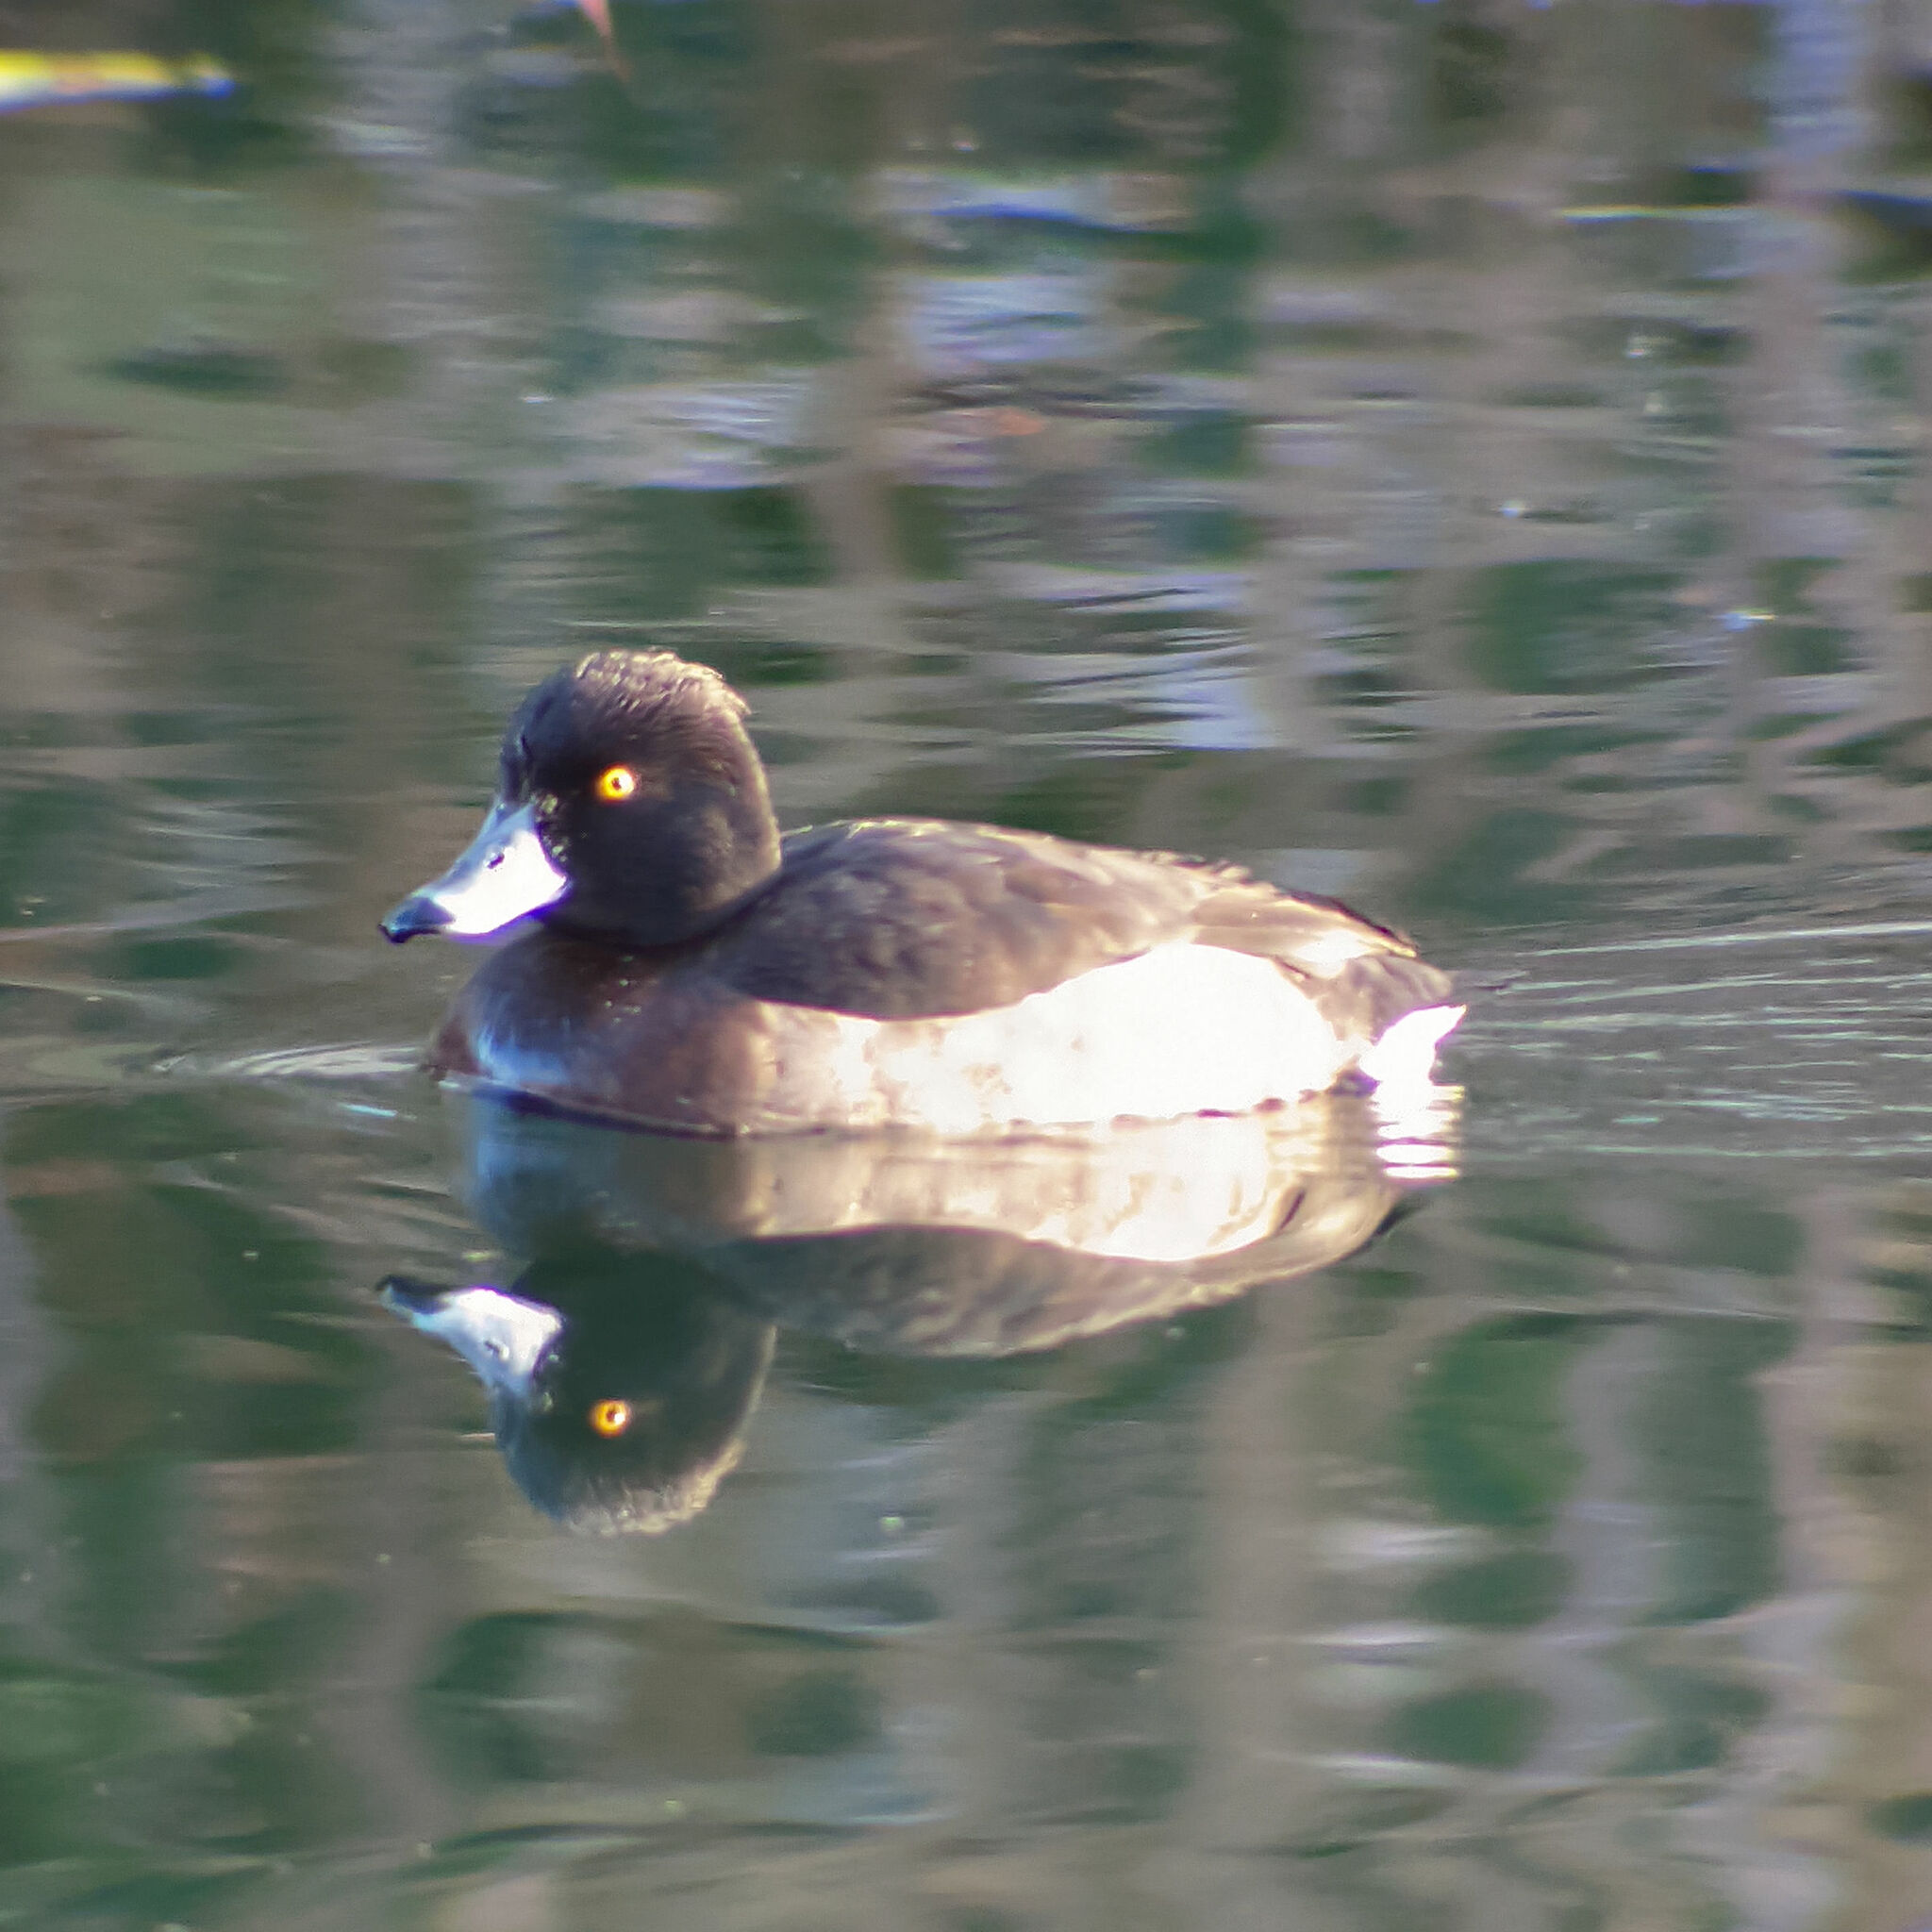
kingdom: Animalia
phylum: Chordata
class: Aves
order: Anseriformes
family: Anatidae
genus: Aythya
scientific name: Aythya fuligula
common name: Tufted duck
